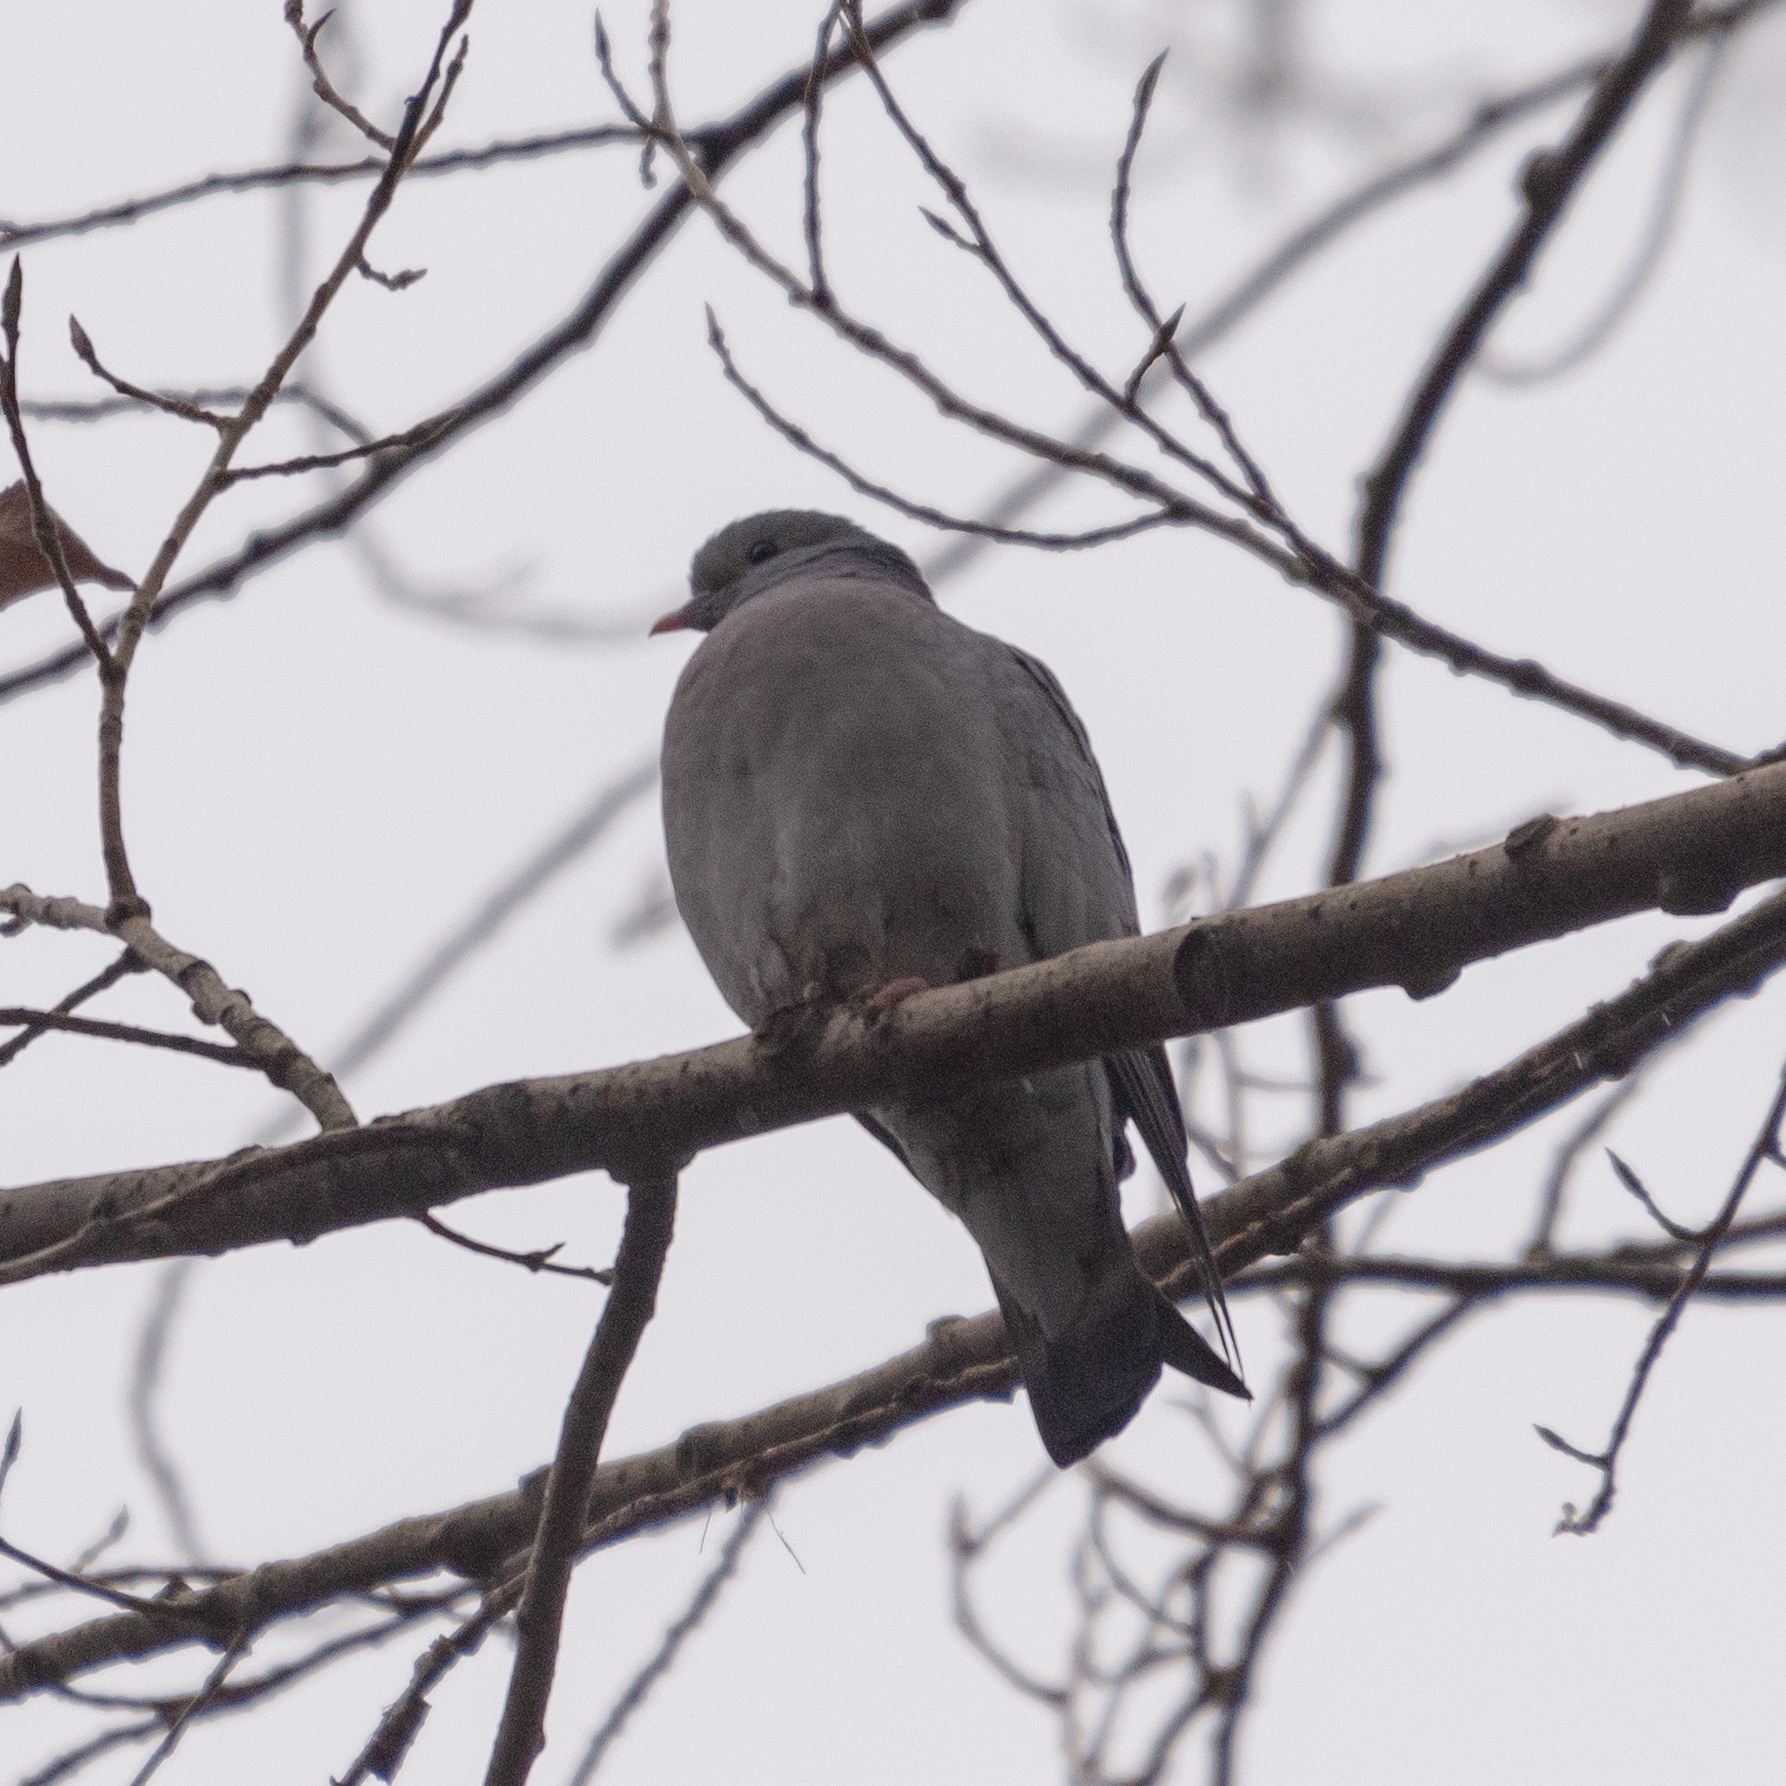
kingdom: Animalia
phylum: Chordata
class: Aves
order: Columbiformes
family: Columbidae
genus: Columba
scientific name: Columba oenas
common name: Stock dove
